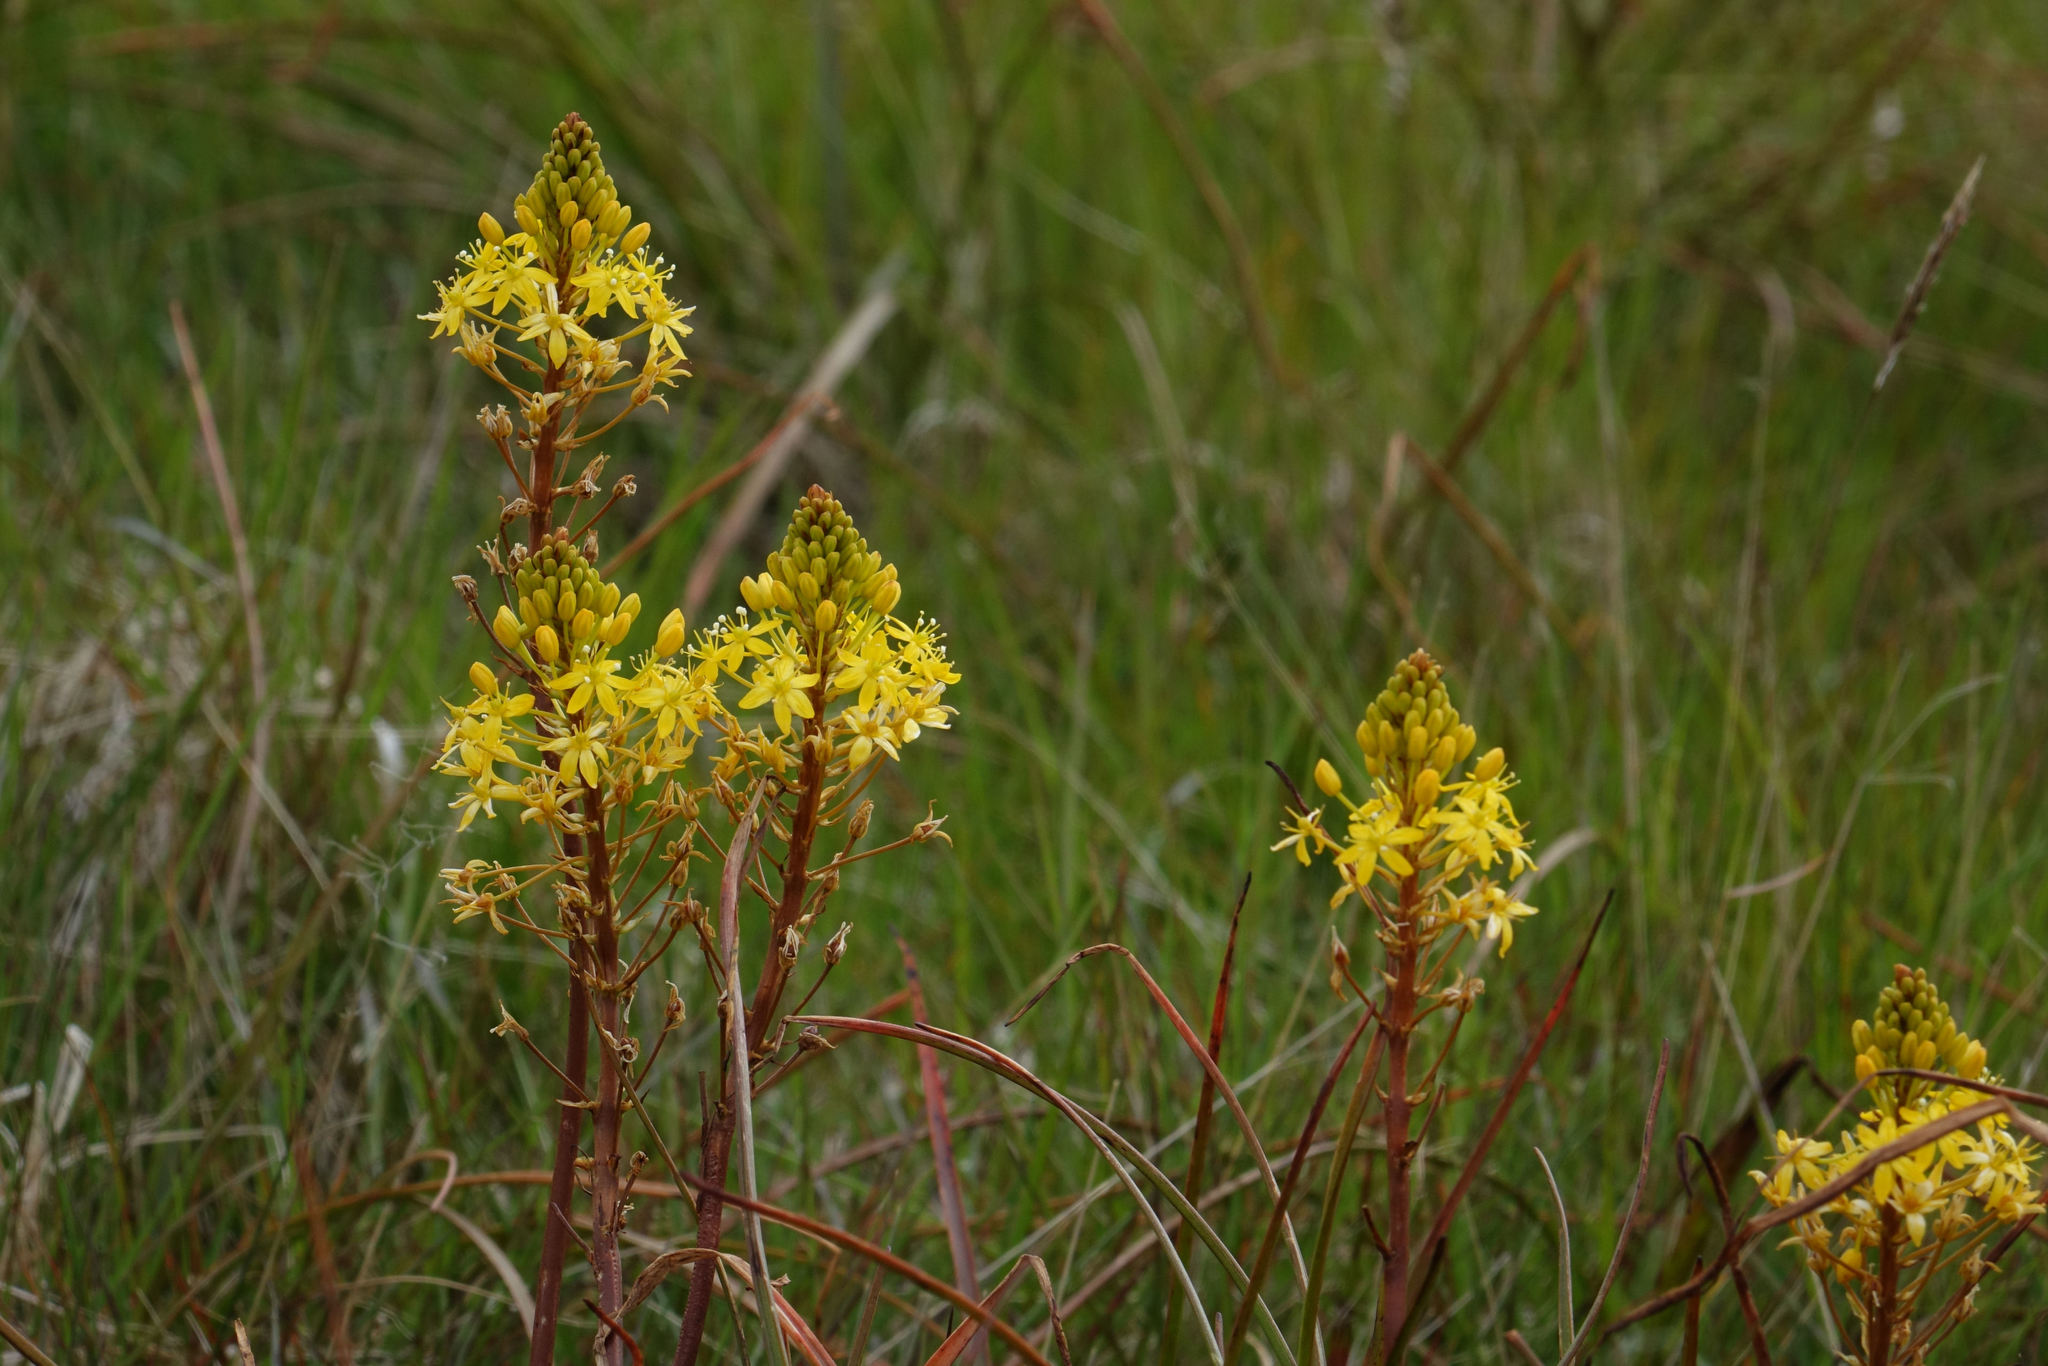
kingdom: Plantae
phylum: Tracheophyta
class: Liliopsida
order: Asparagales
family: Asphodelaceae
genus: Bulbinella
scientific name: Bulbinella angustifolia
